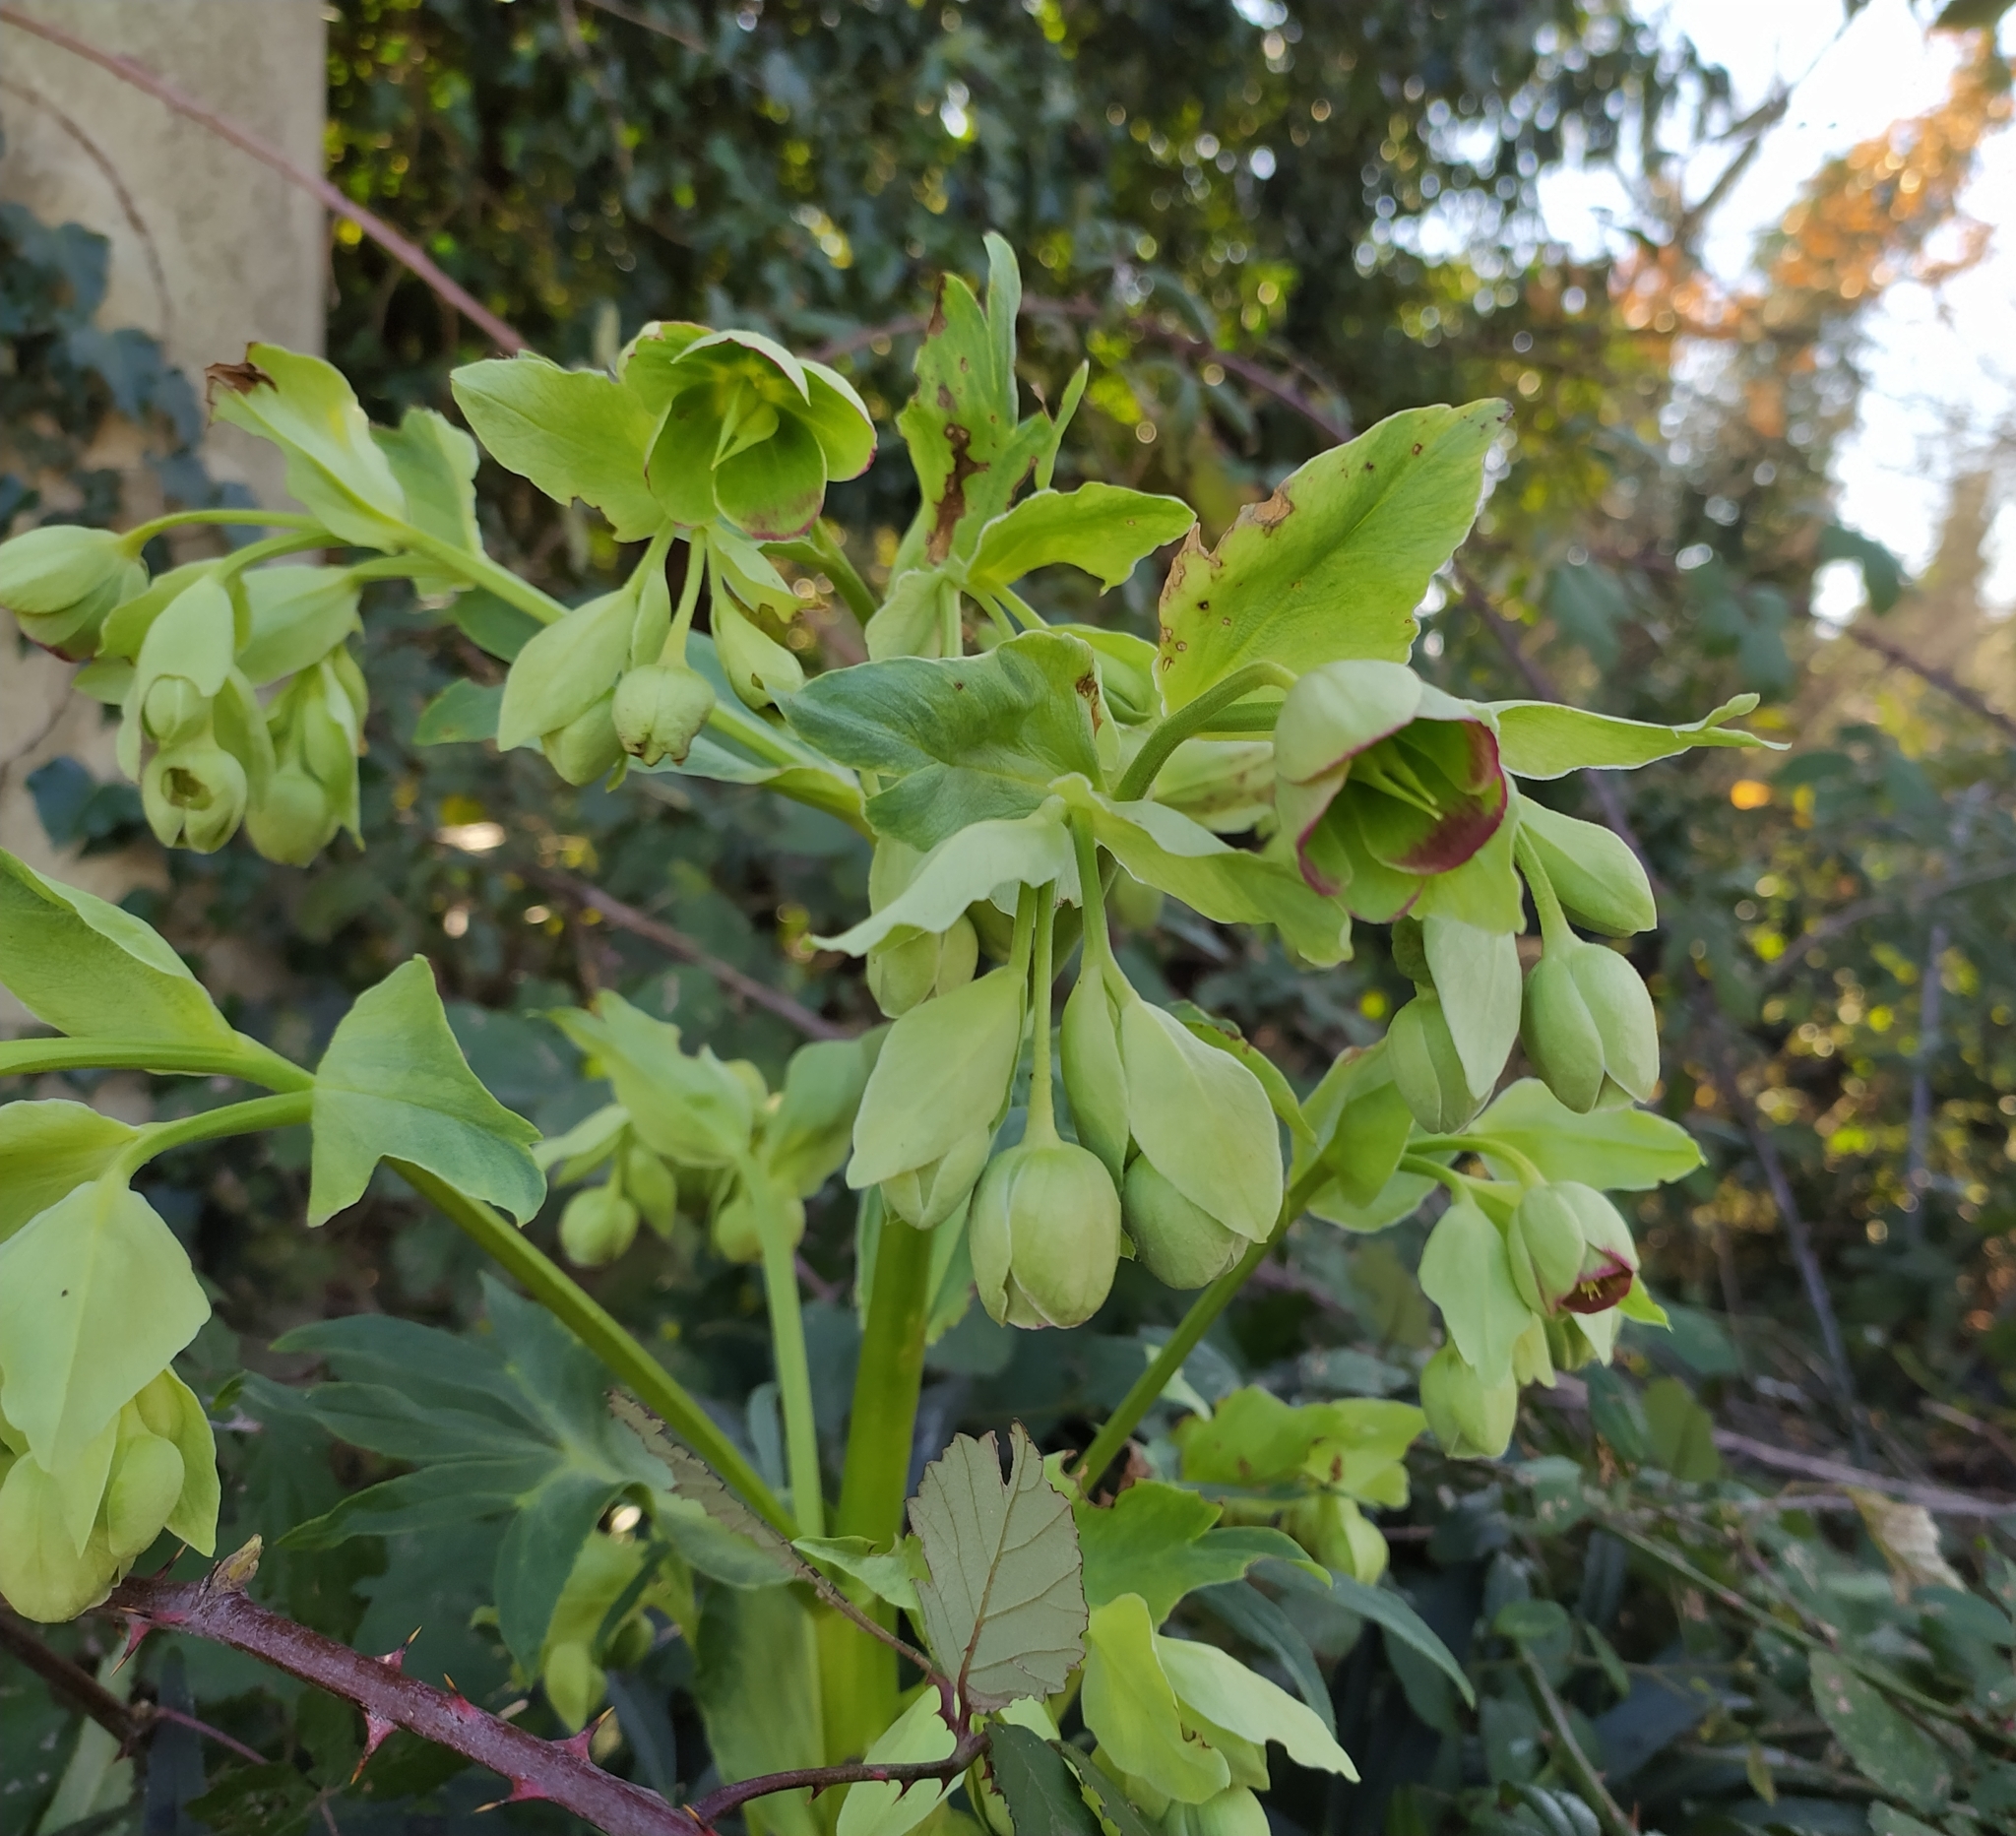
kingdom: Plantae
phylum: Tracheophyta
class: Magnoliopsida
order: Ranunculales
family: Ranunculaceae
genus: Helleborus
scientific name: Helleborus foetidus
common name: Stinking hellebore
